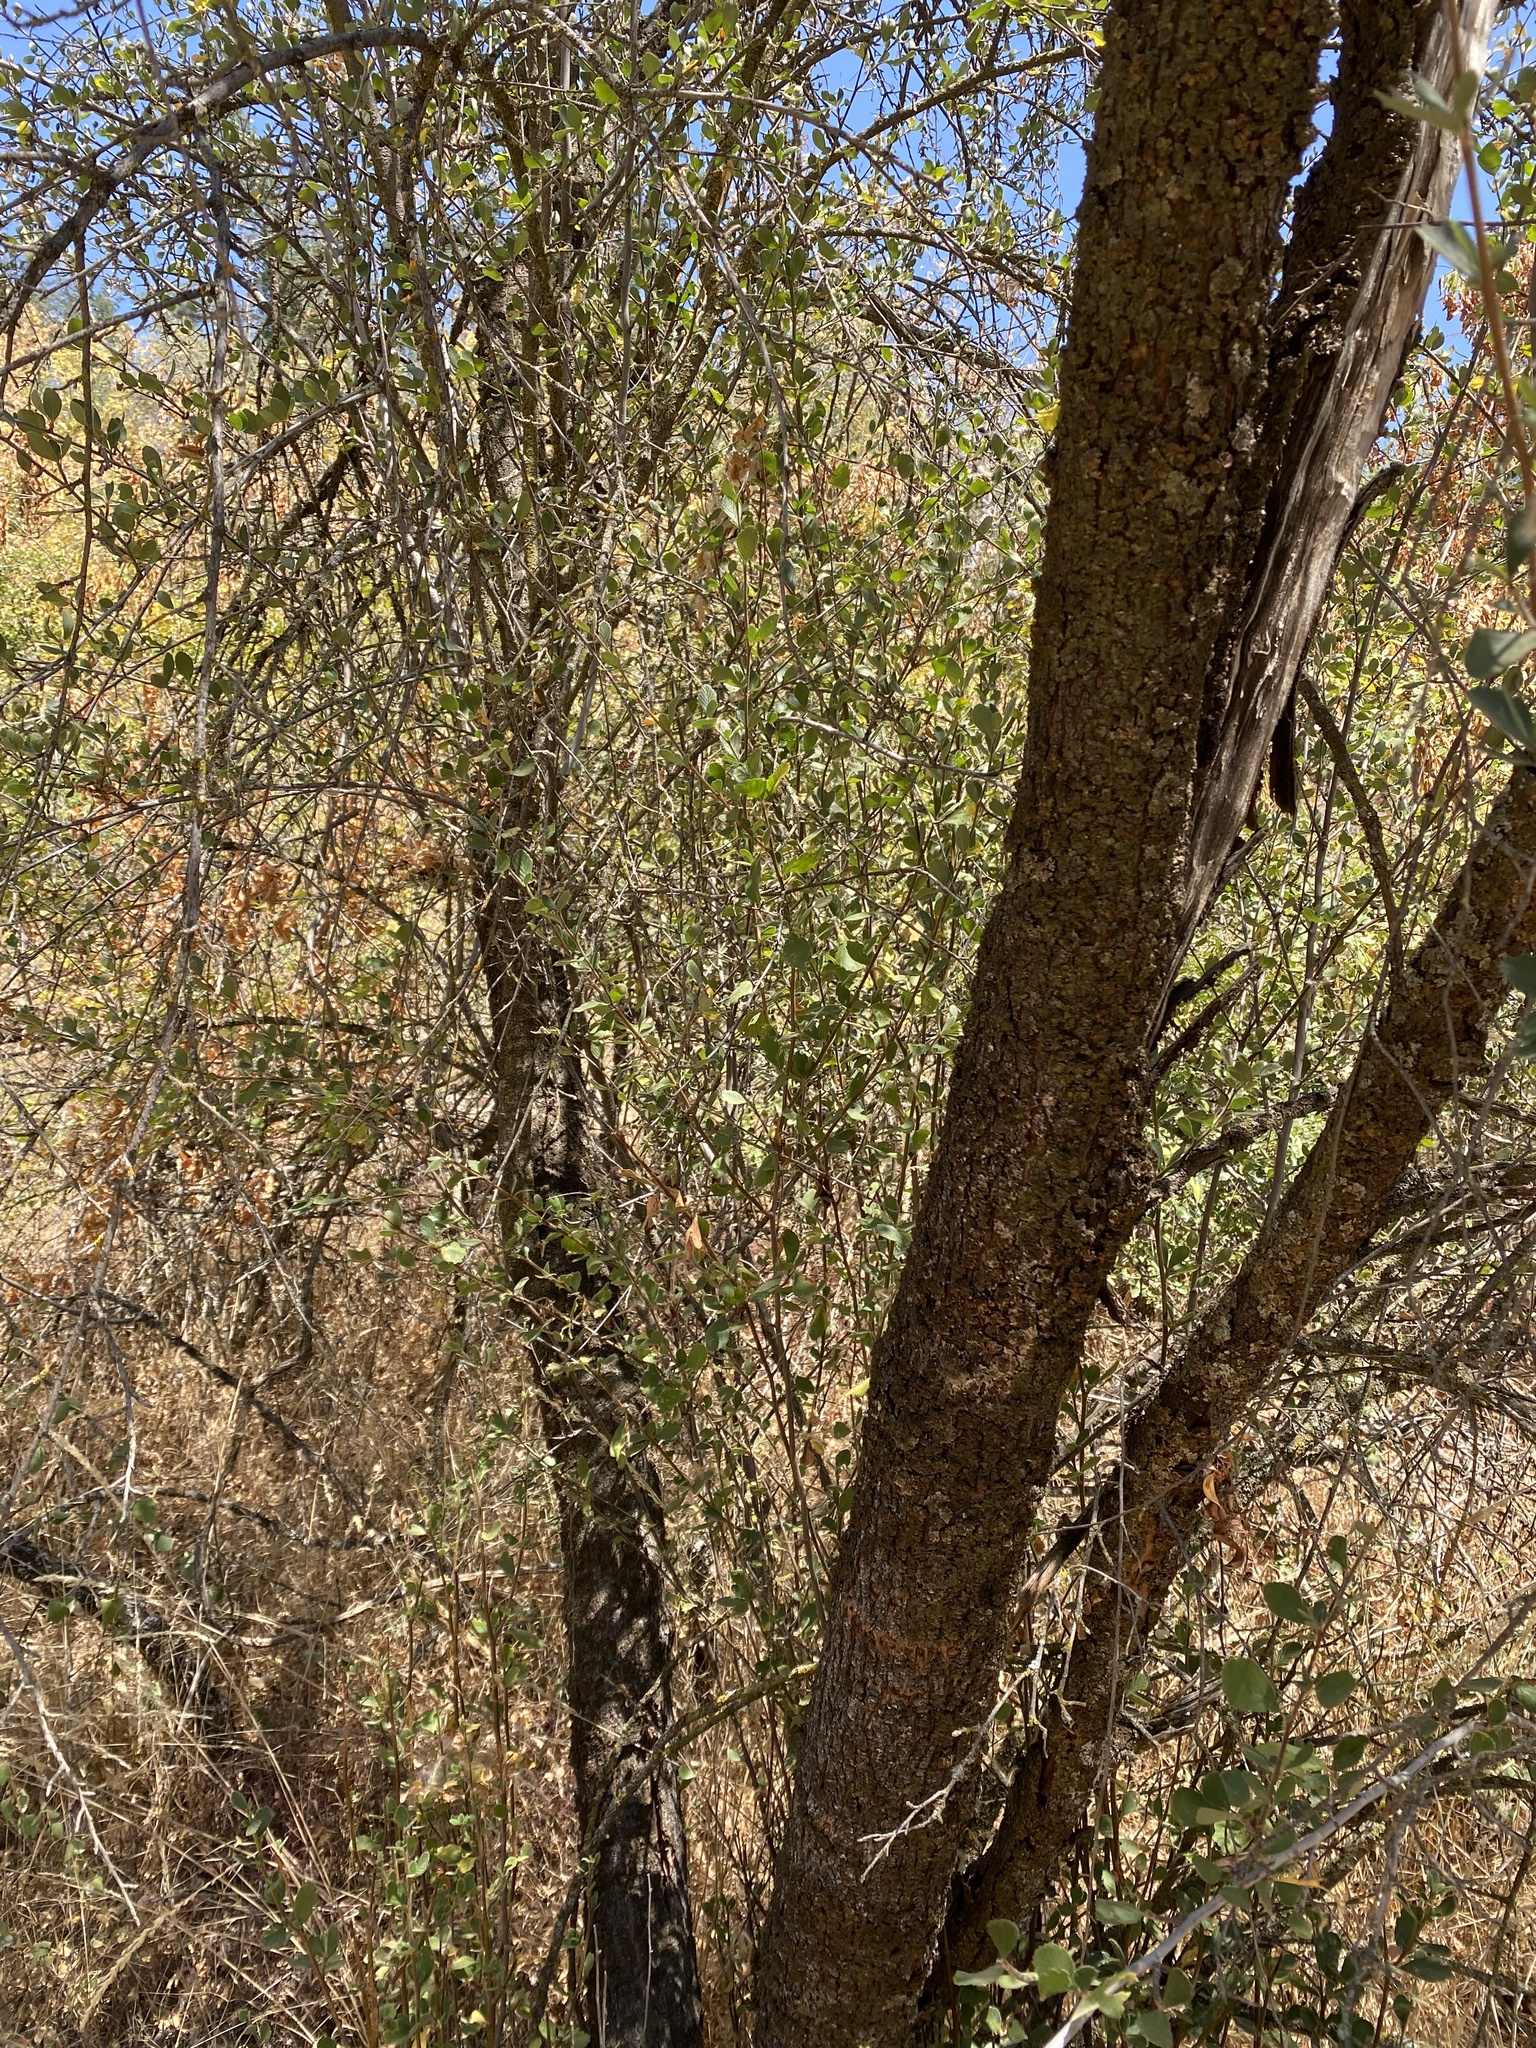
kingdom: Plantae
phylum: Tracheophyta
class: Magnoliopsida
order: Rosales
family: Rosaceae
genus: Cercocarpus
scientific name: Cercocarpus betuloides
